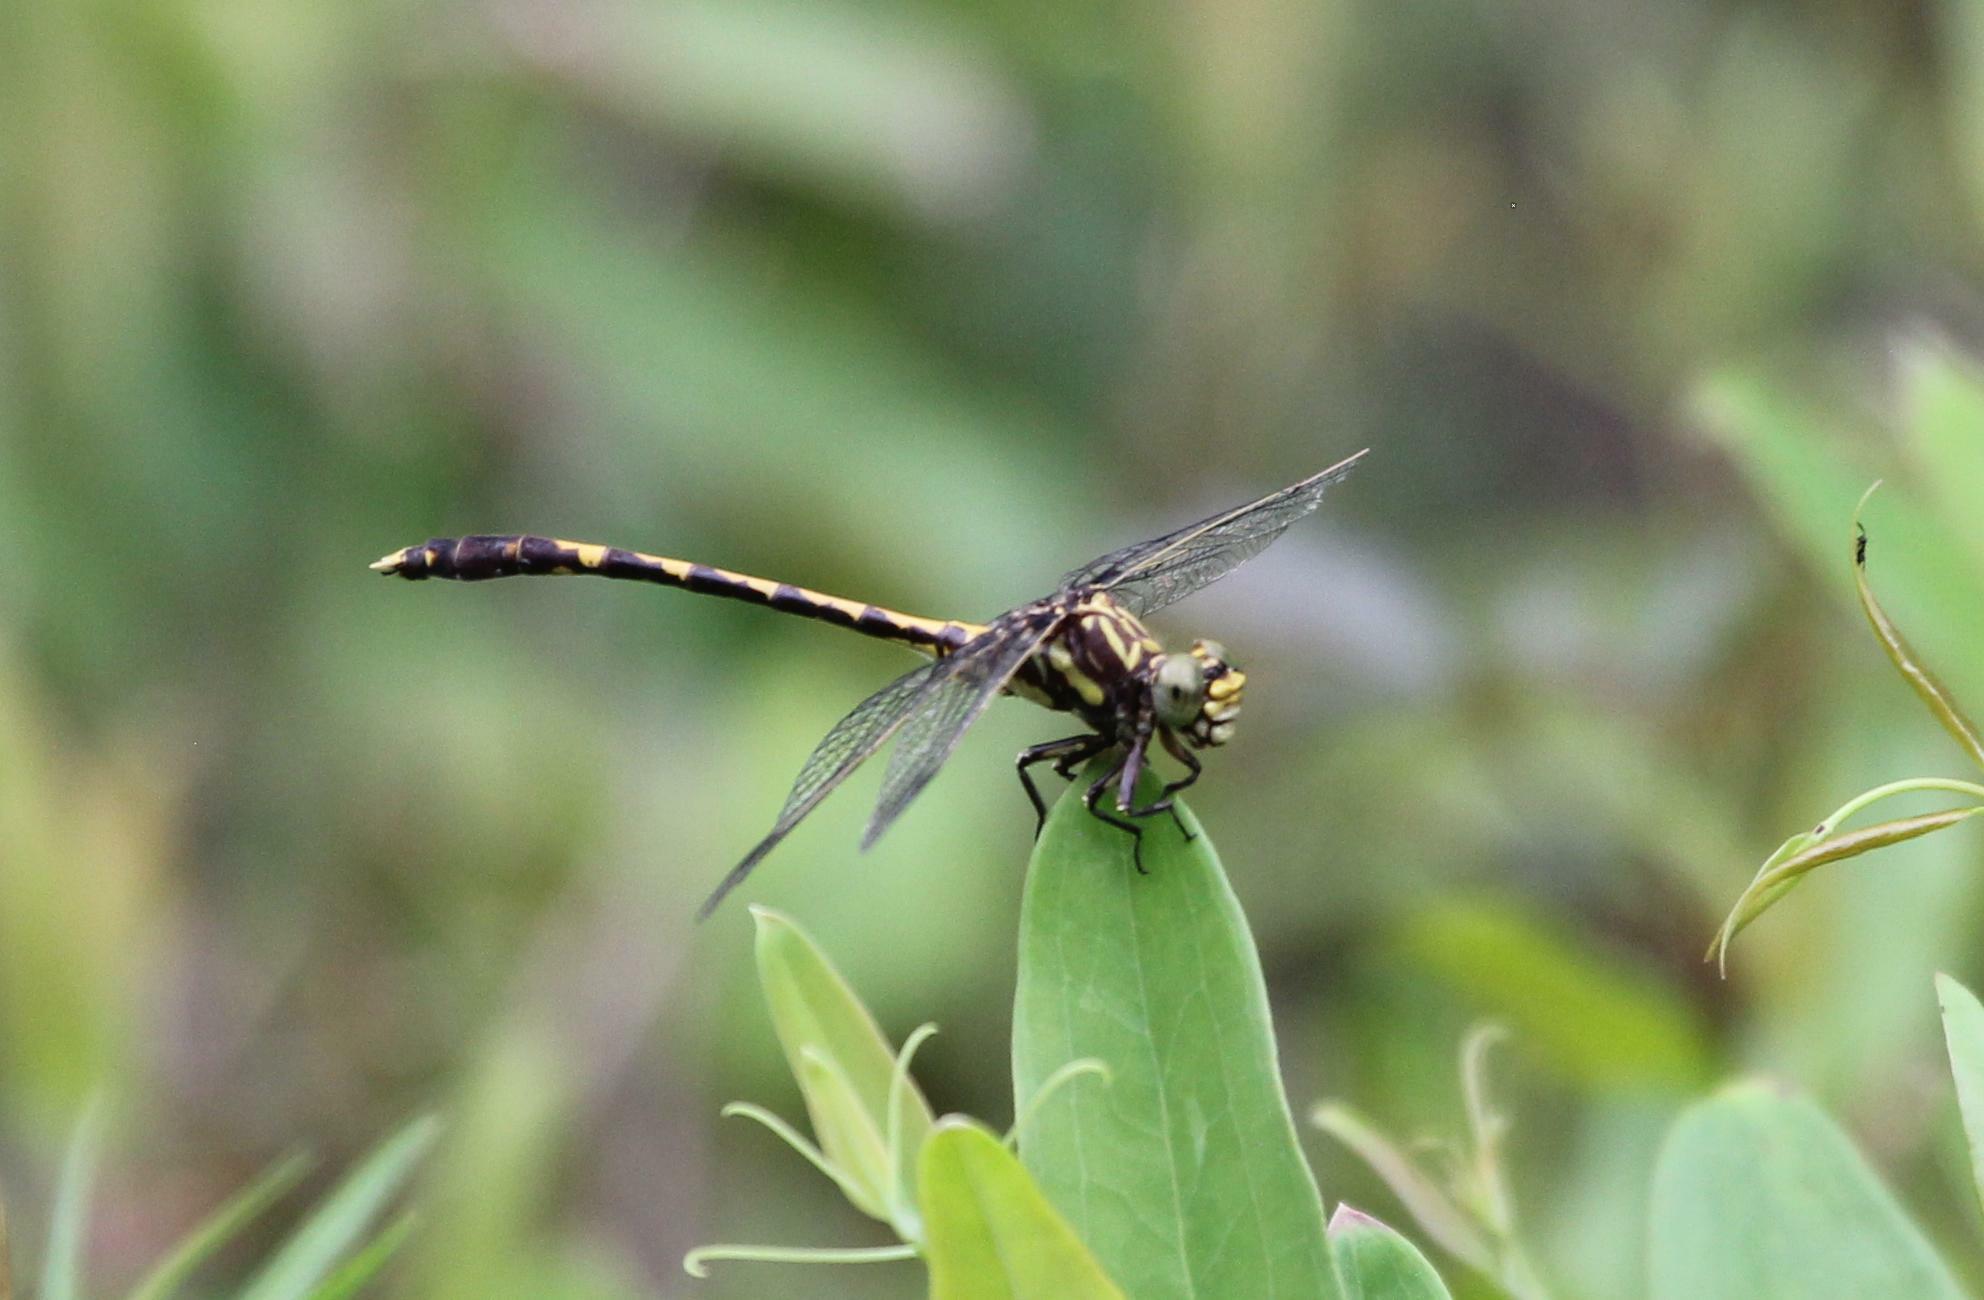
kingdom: Animalia
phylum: Arthropoda
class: Insecta
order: Odonata
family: Gomphidae
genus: Progomphus
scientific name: Progomphus obscurus
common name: Common sanddragon
